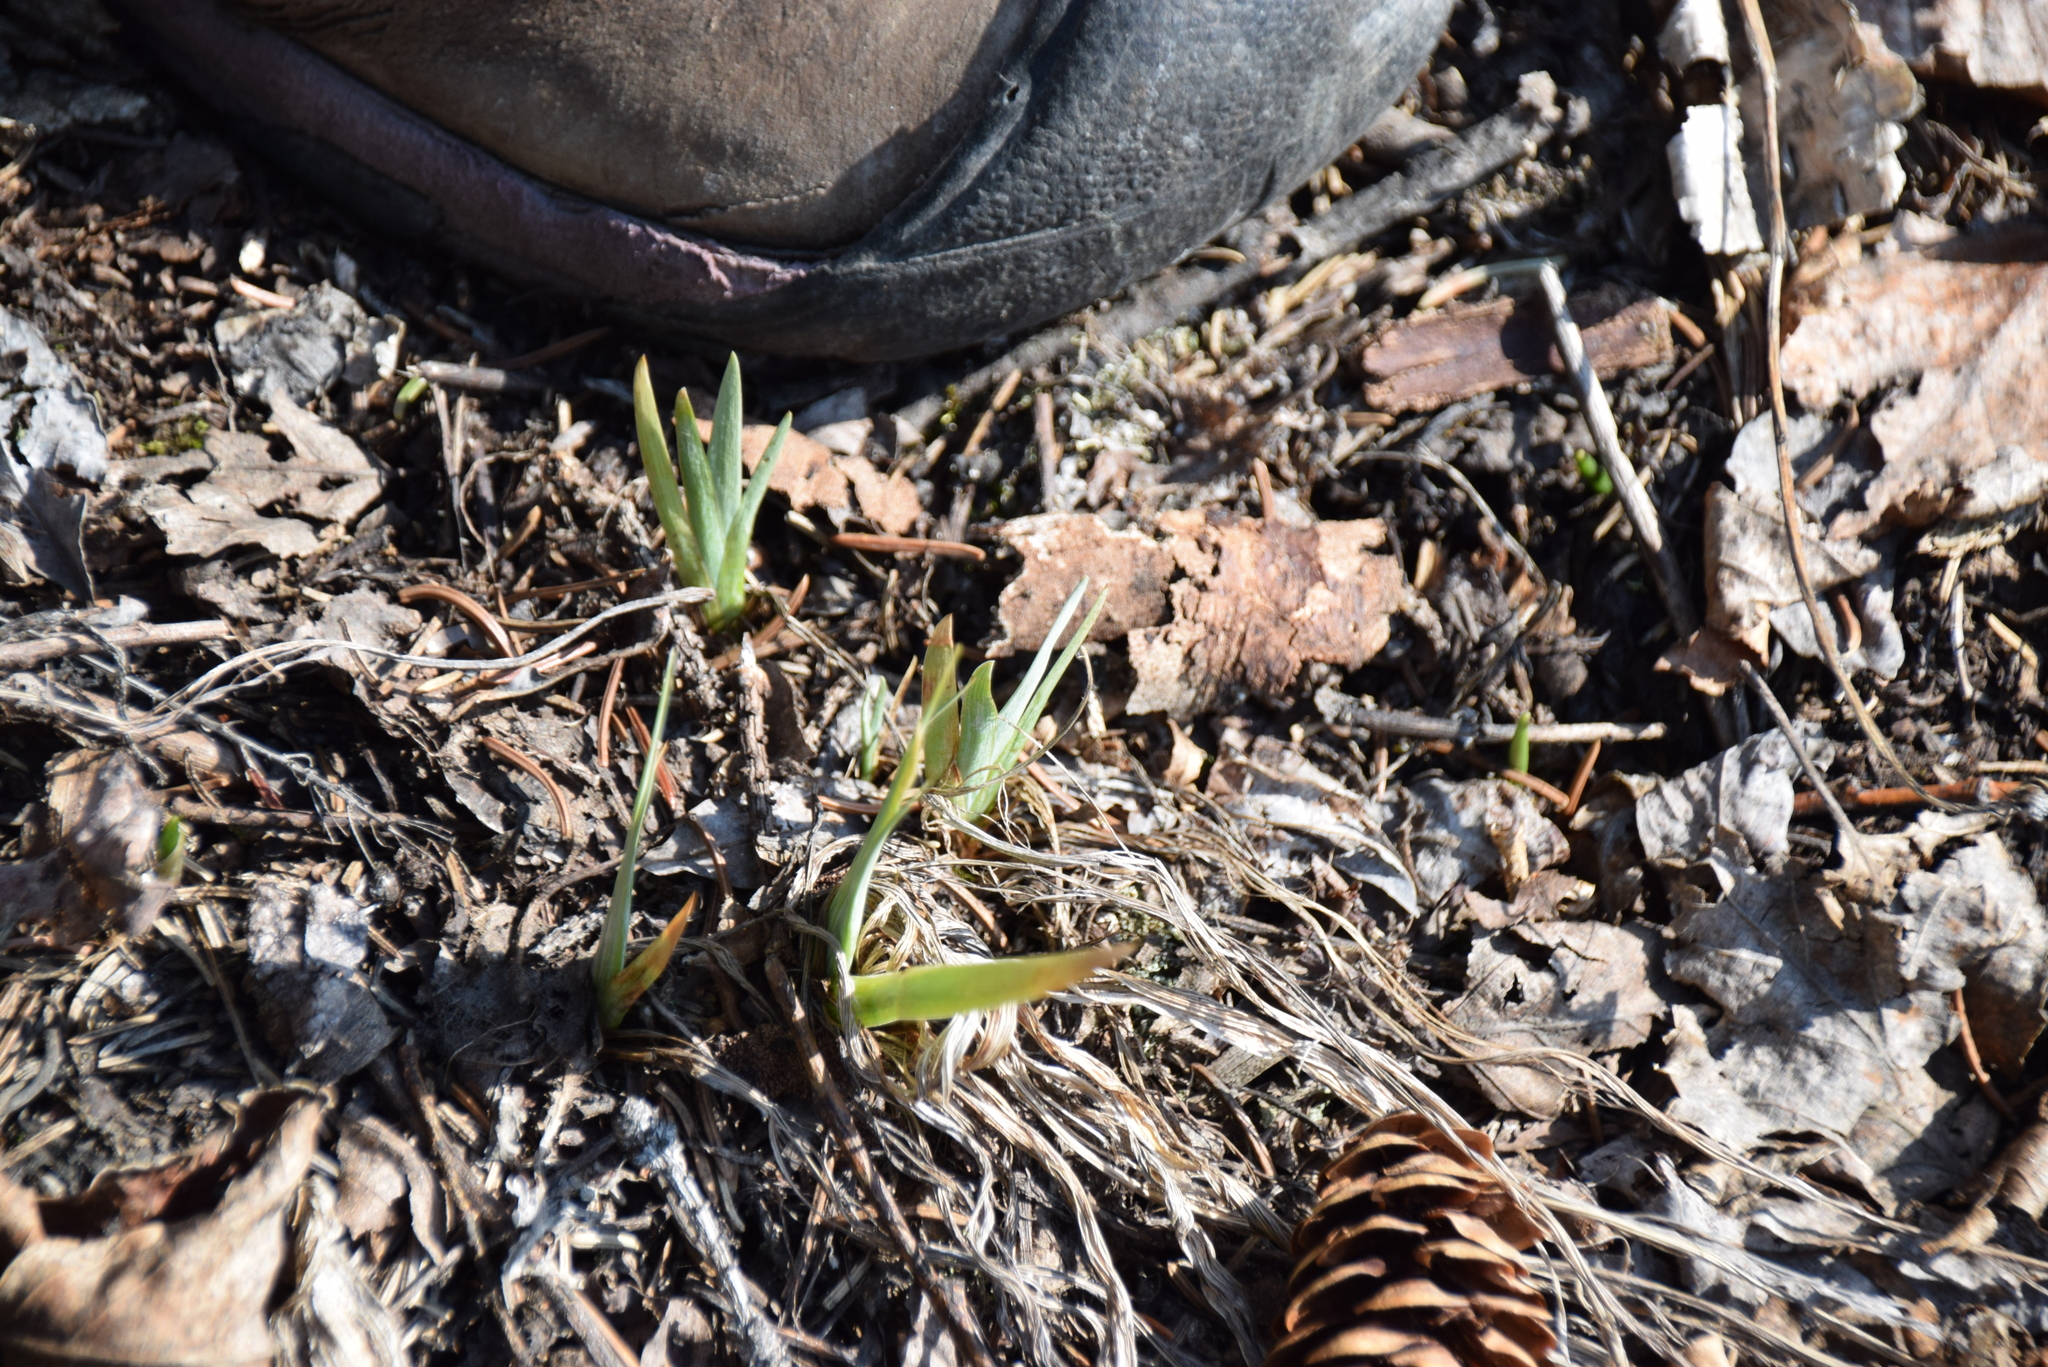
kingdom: Plantae
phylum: Tracheophyta
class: Liliopsida
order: Asparagales
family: Iridaceae
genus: Iris
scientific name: Iris versicolor
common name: Purple iris
